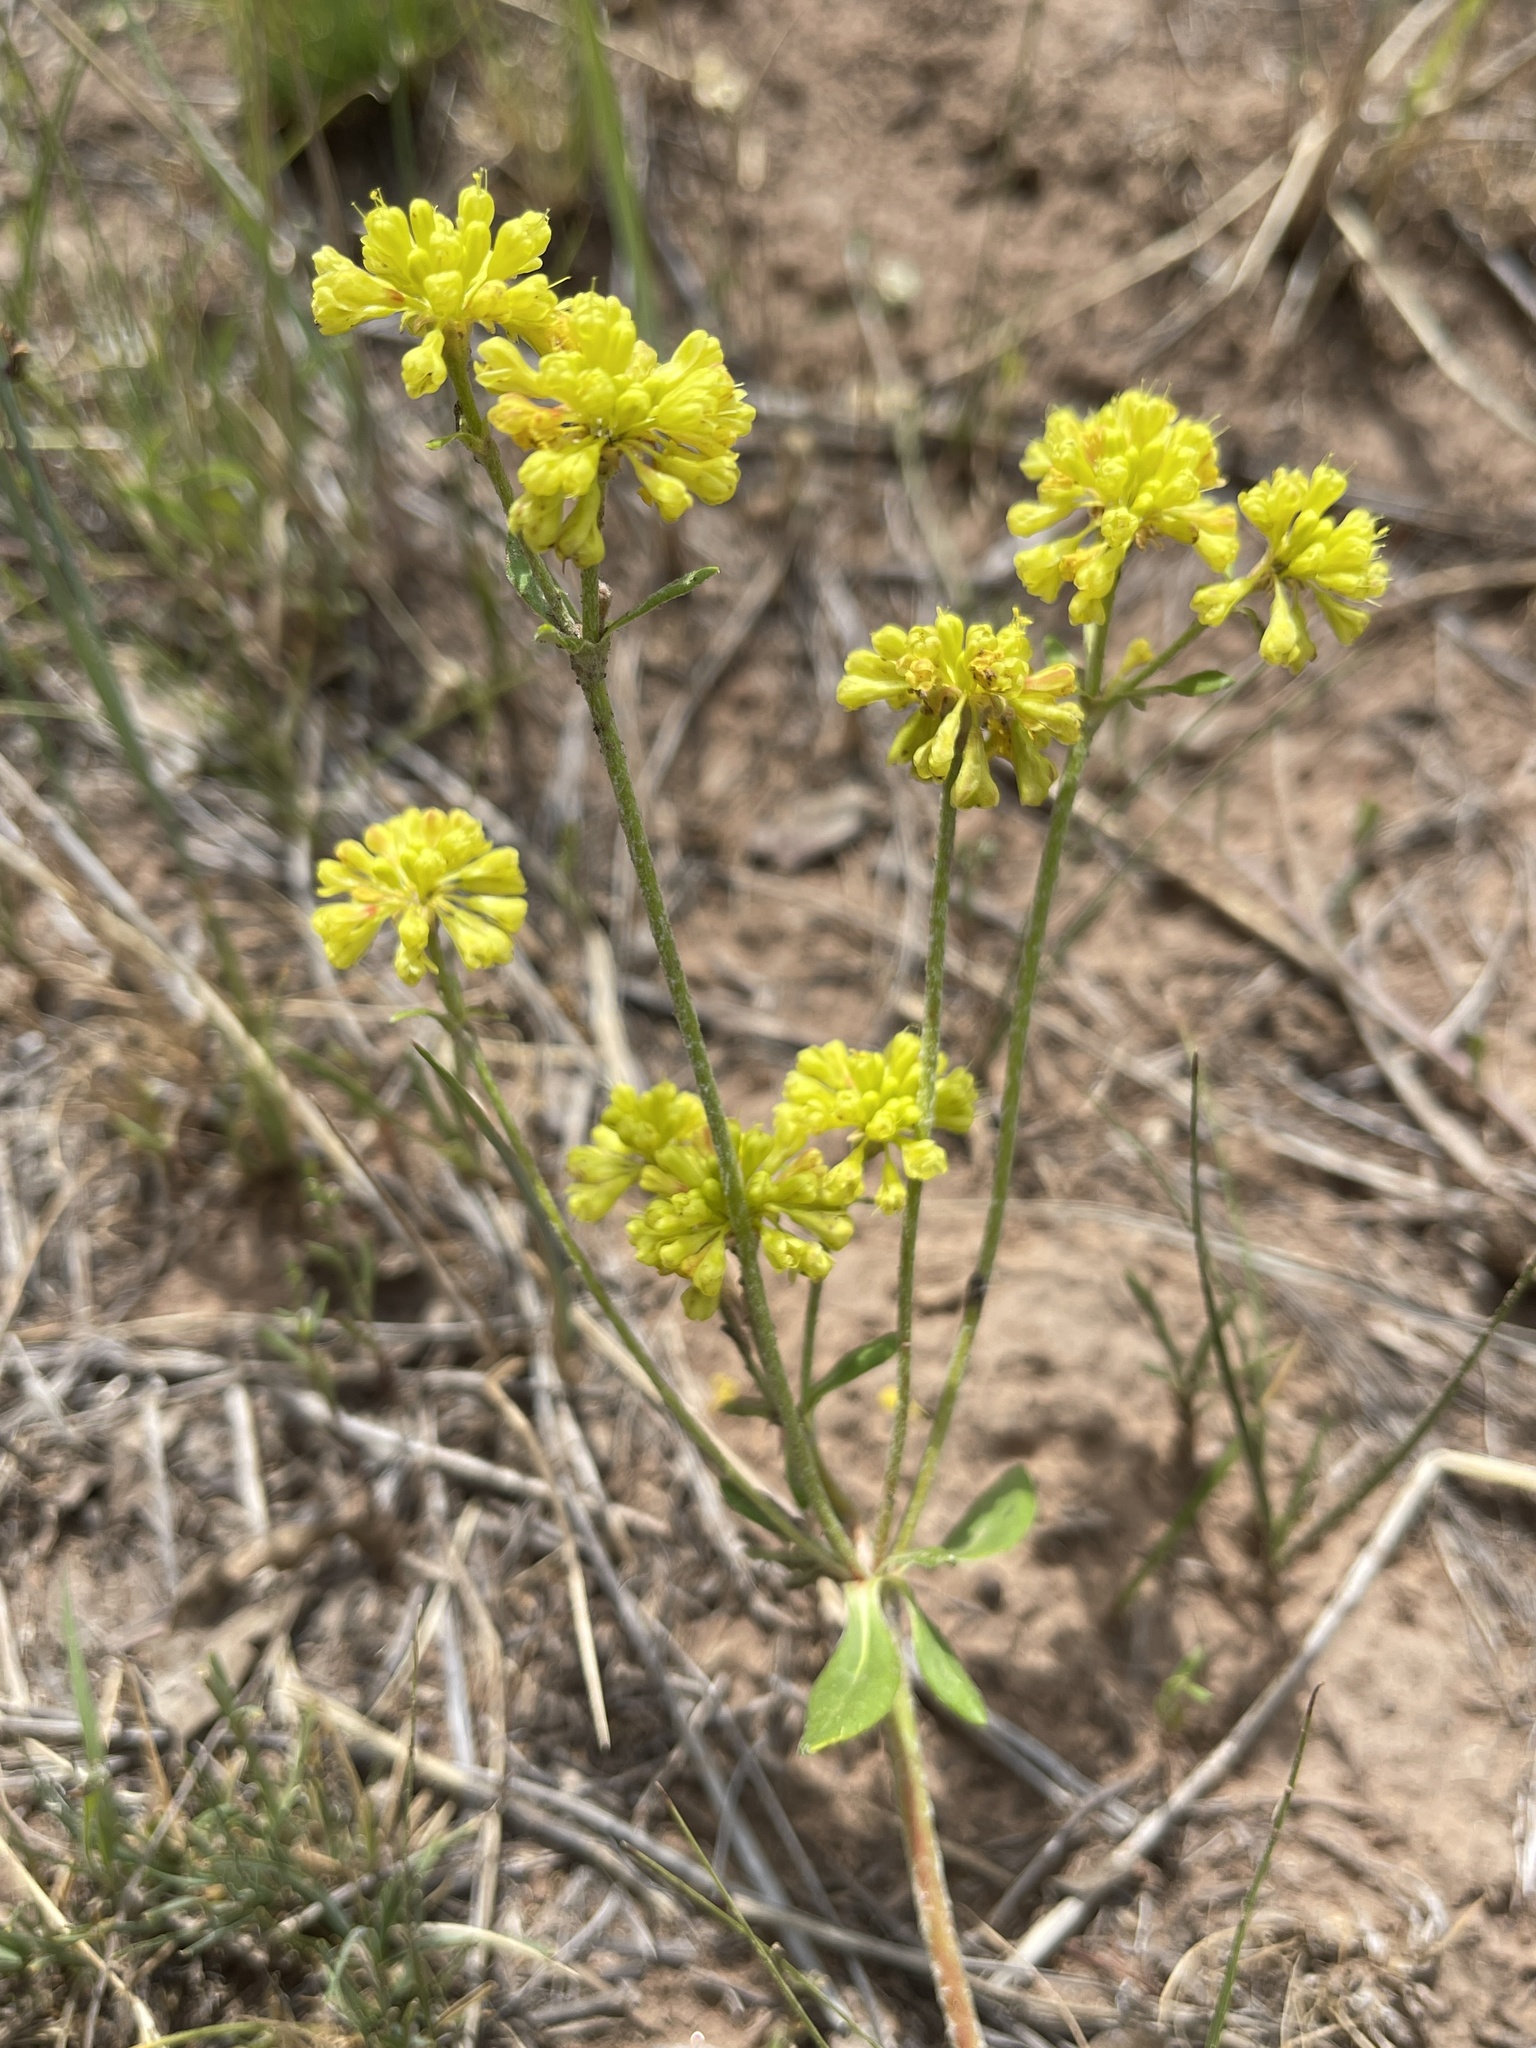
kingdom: Plantae
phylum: Tracheophyta
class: Magnoliopsida
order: Caryophyllales
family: Polygonaceae
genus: Eriogonum
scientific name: Eriogonum umbellatum
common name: Sulfur-buckwheat
